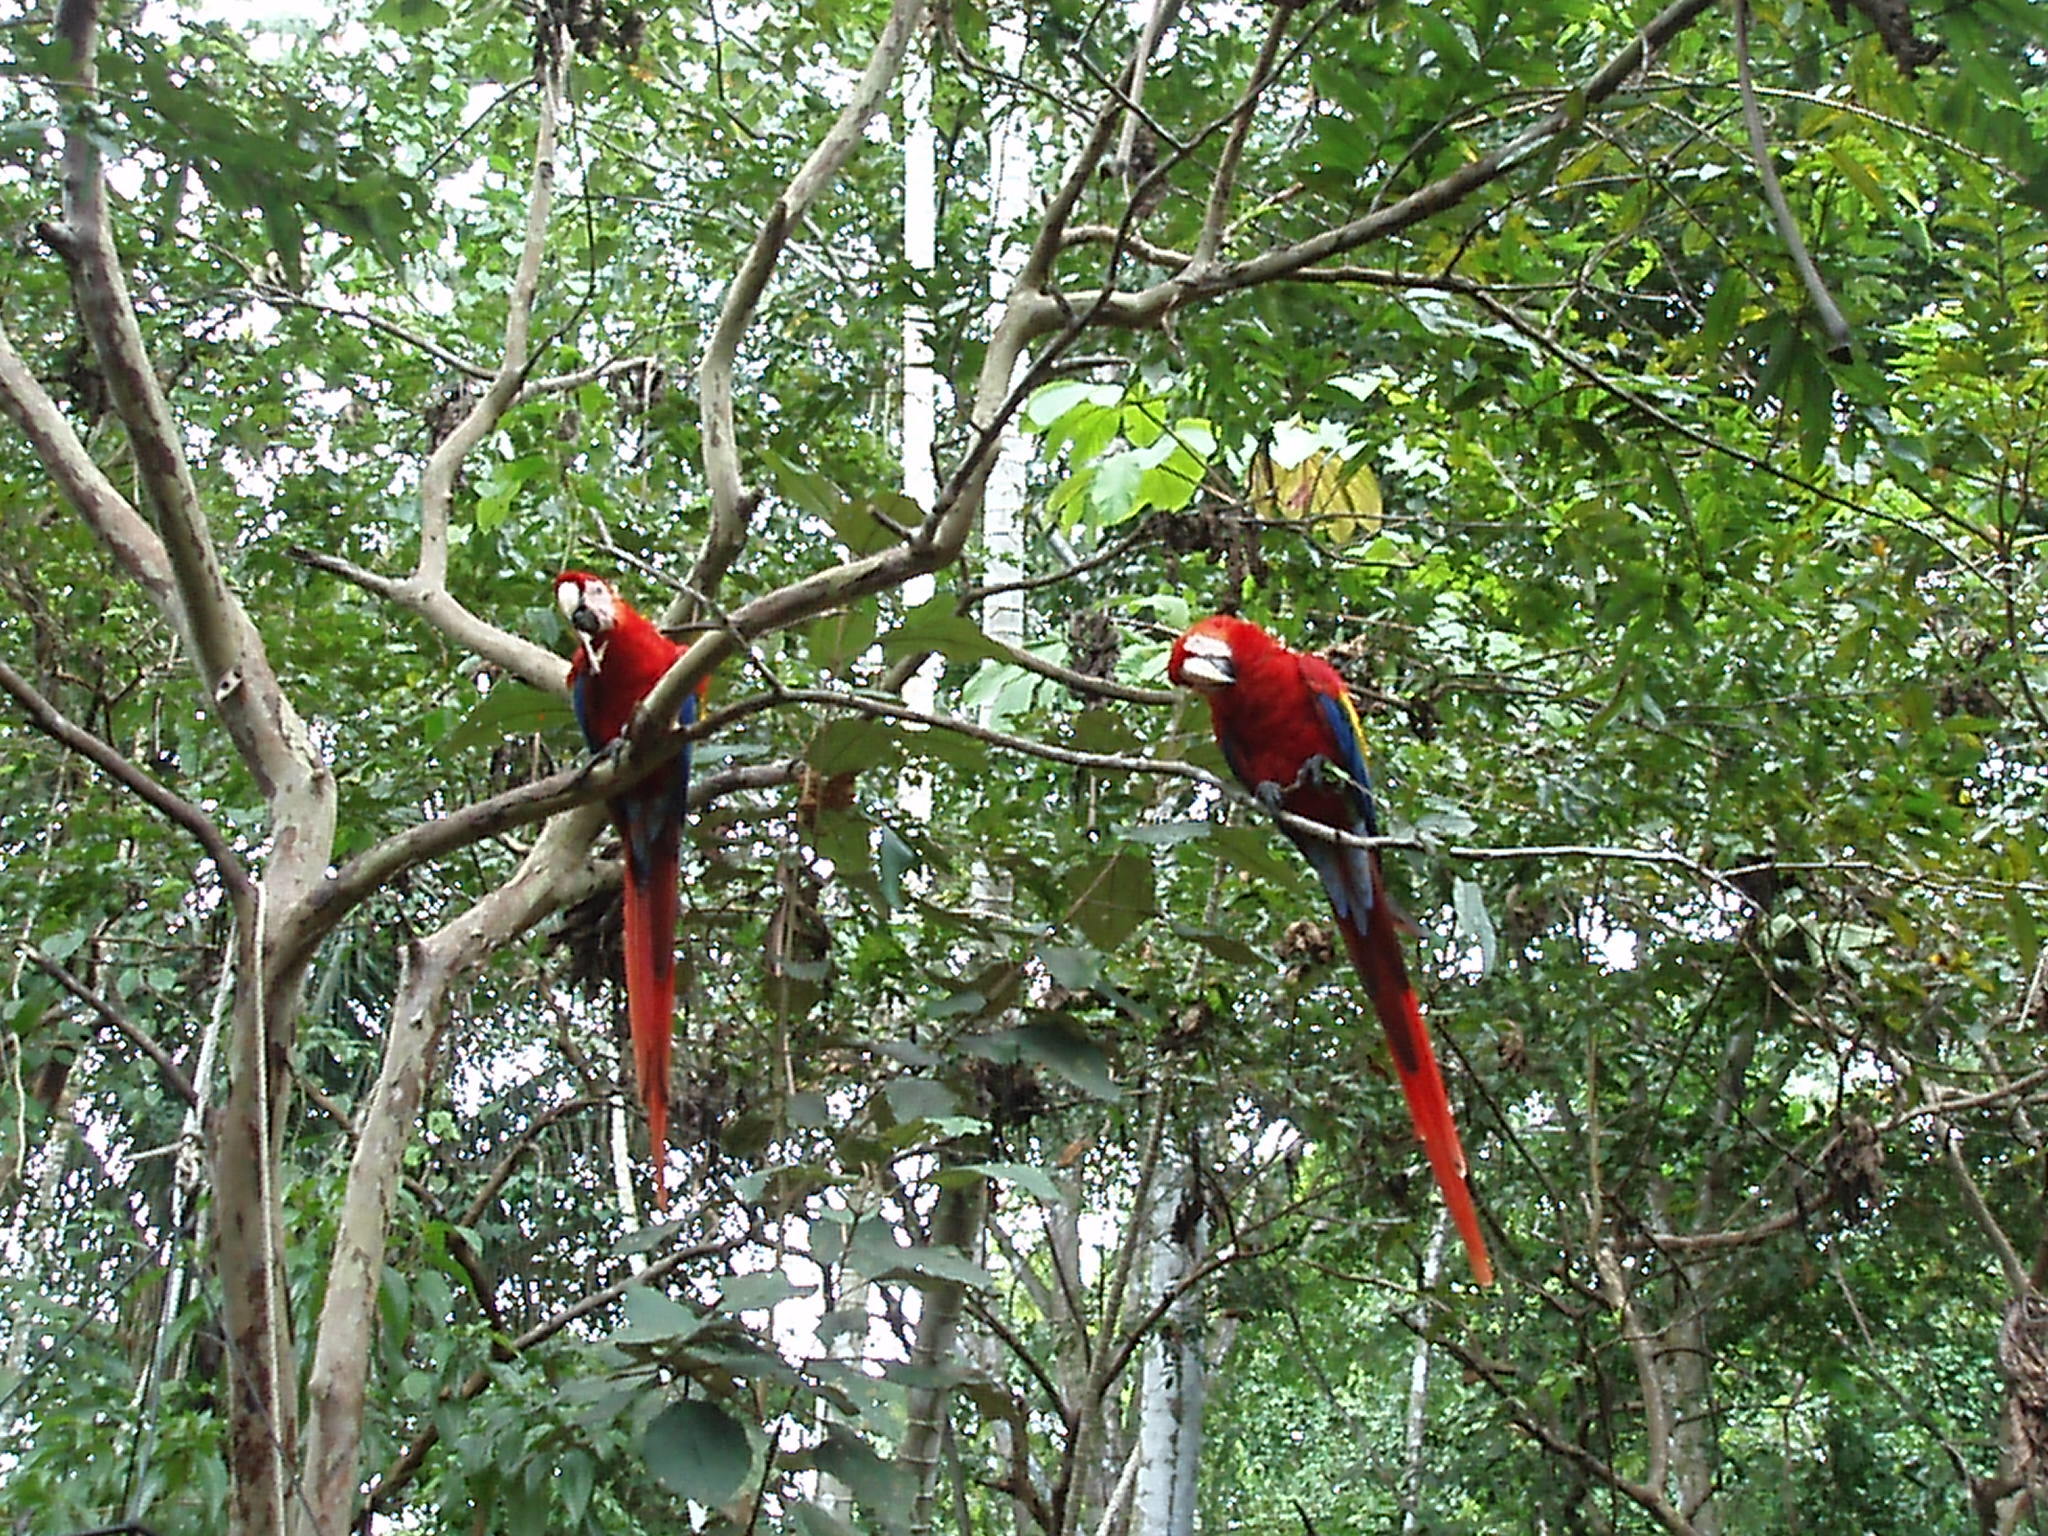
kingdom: Animalia
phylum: Chordata
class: Aves
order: Psittaciformes
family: Psittacidae
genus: Ara
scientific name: Ara macao
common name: Scarlet macaw
